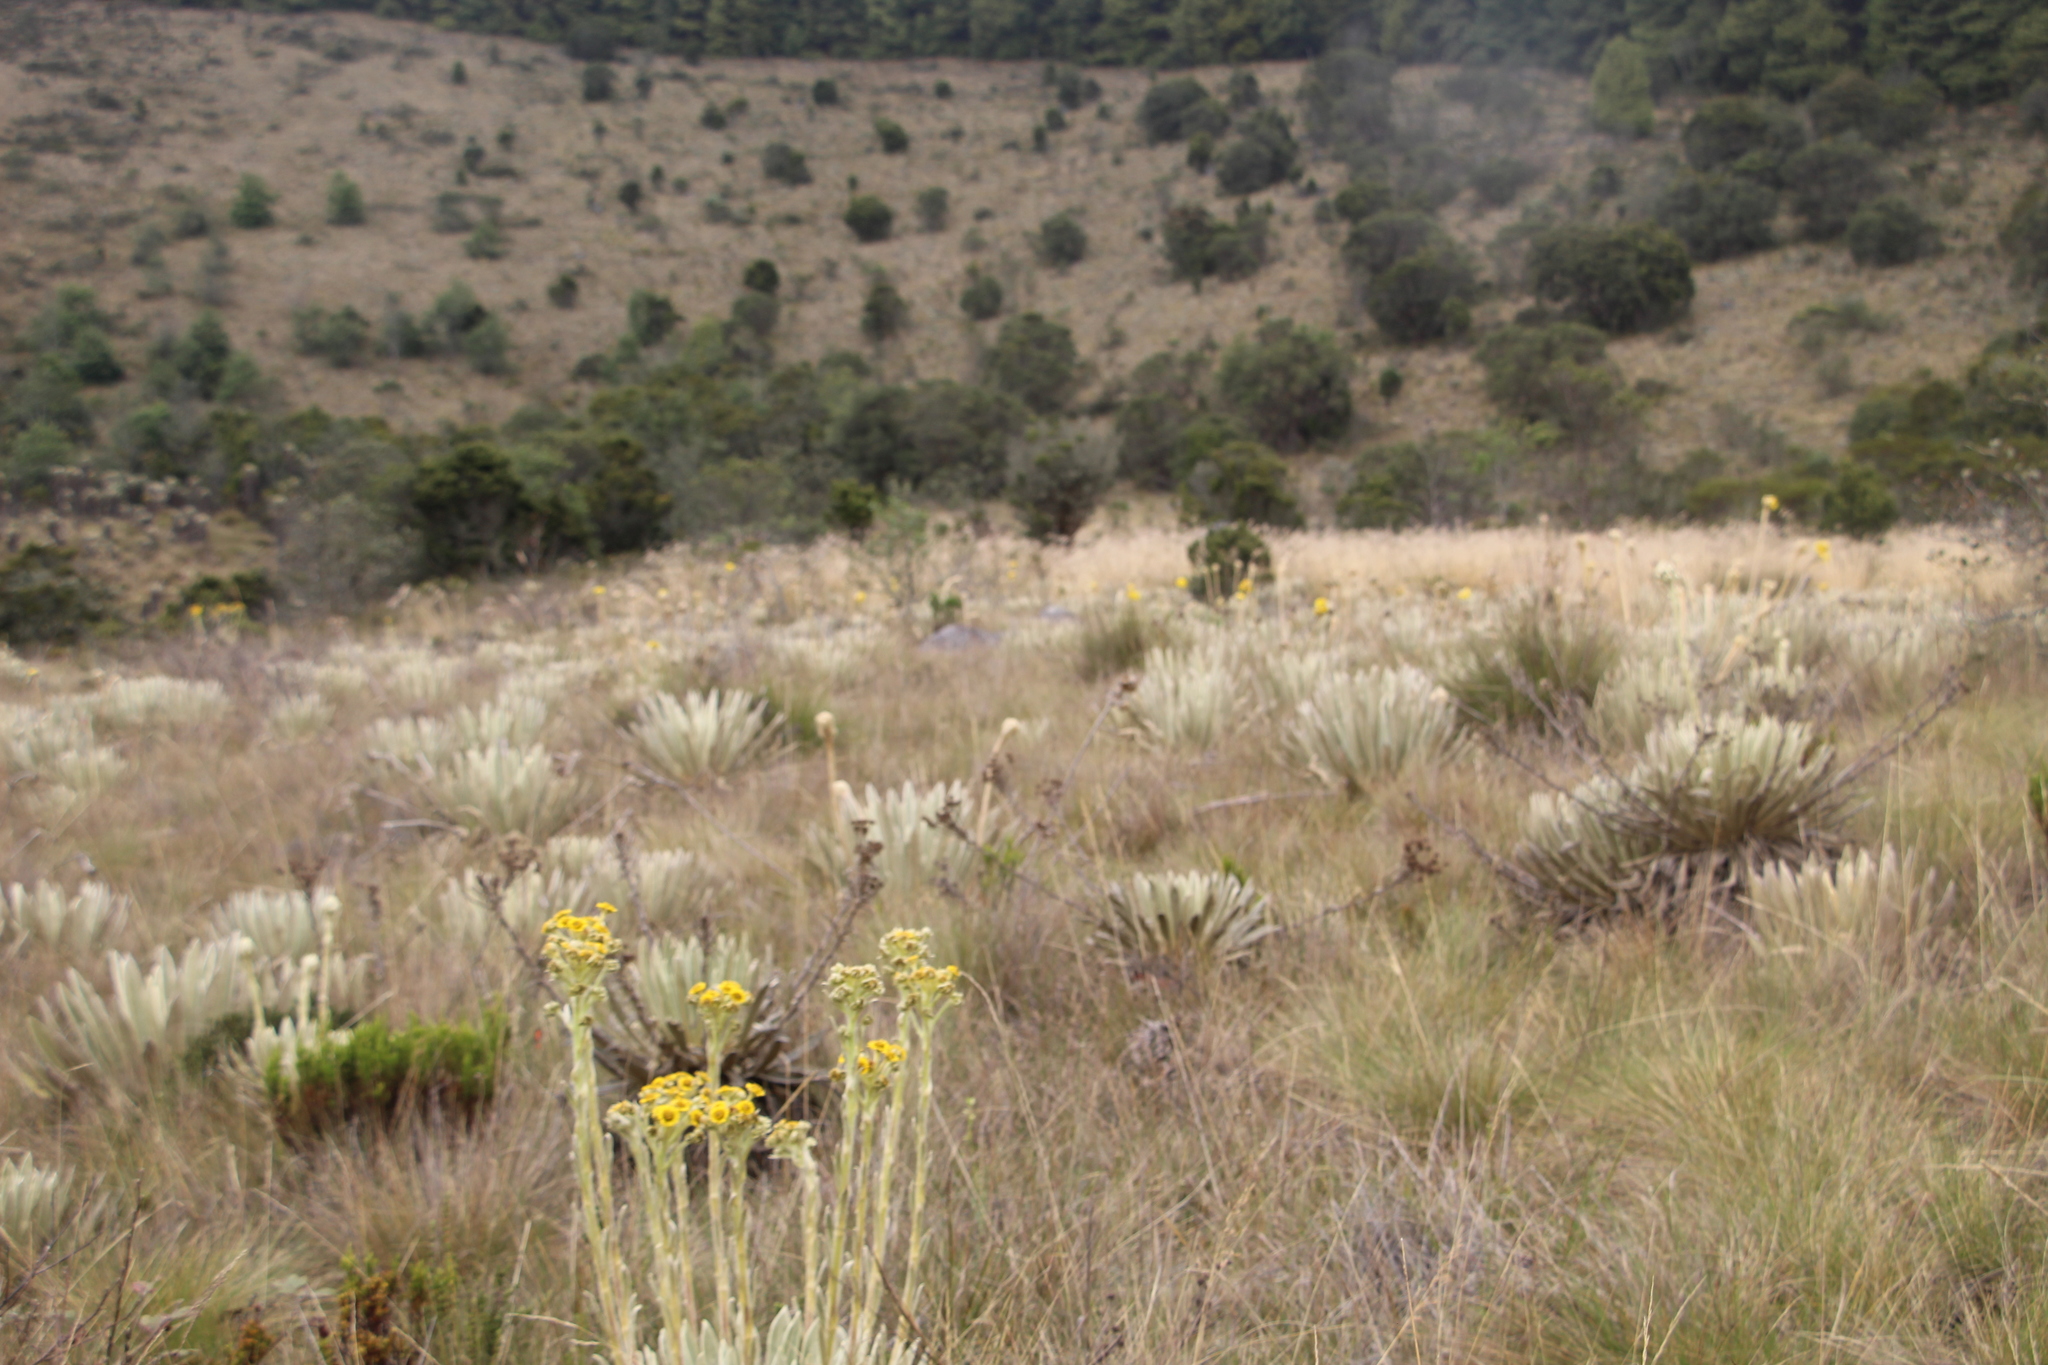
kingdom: Plantae
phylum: Tracheophyta
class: Magnoliopsida
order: Asterales
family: Asteraceae
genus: Espeletia
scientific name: Espeletia muiska
